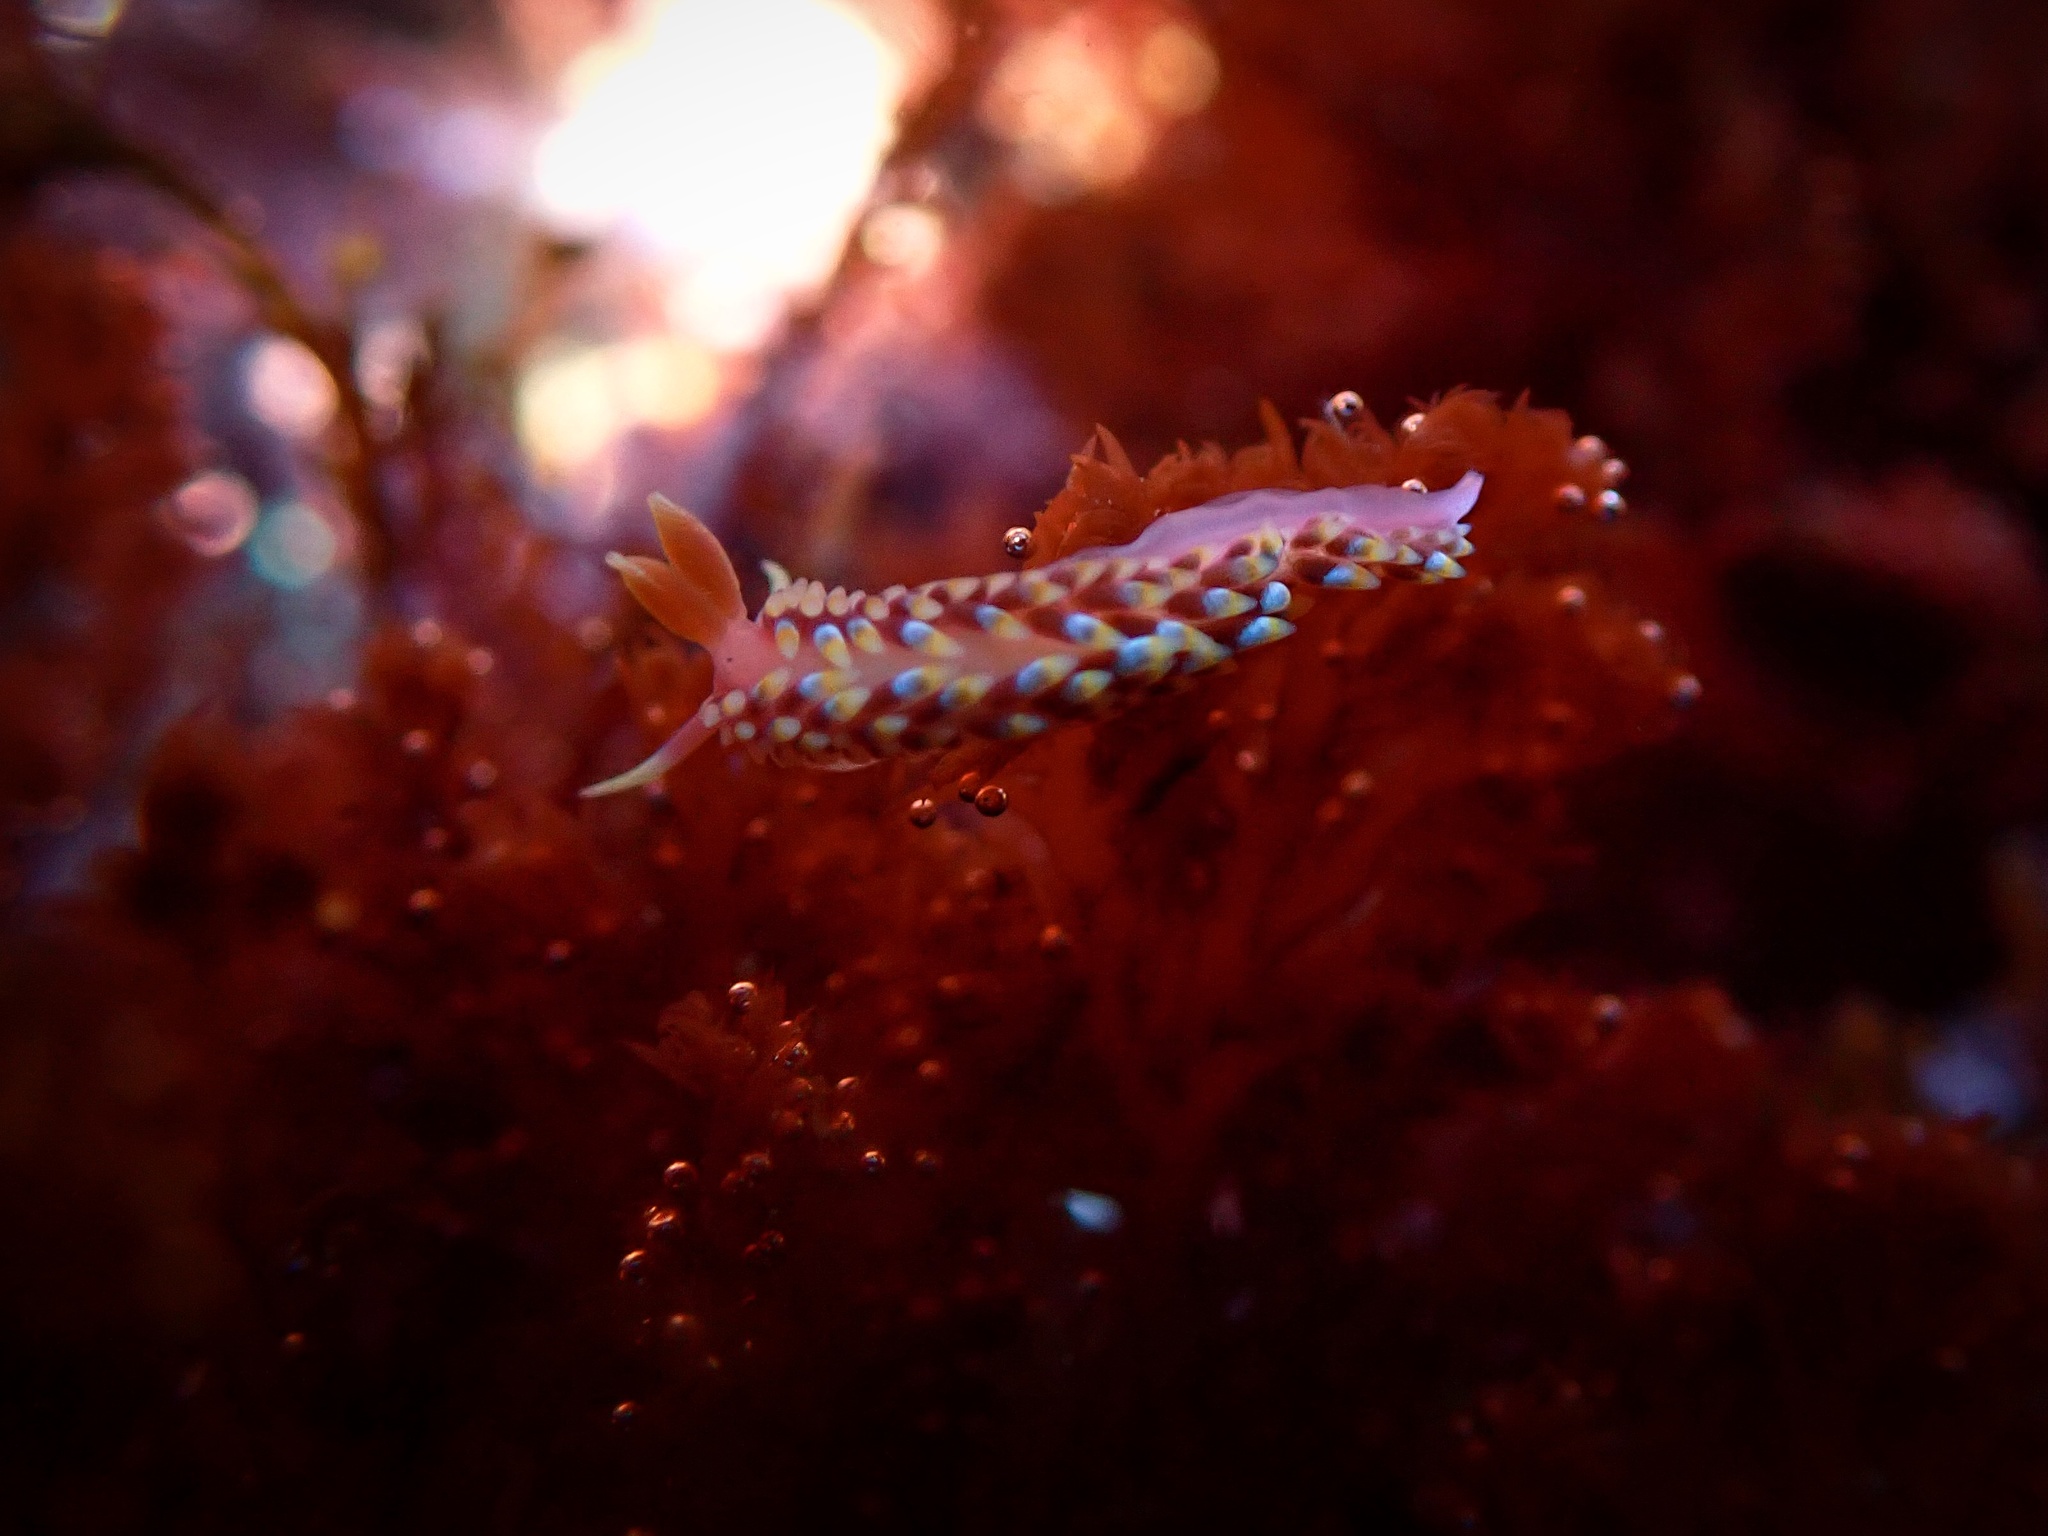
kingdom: Animalia
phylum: Mollusca
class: Gastropoda
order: Nudibranchia
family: Babakinidae
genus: Babakina
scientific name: Babakina festiva
